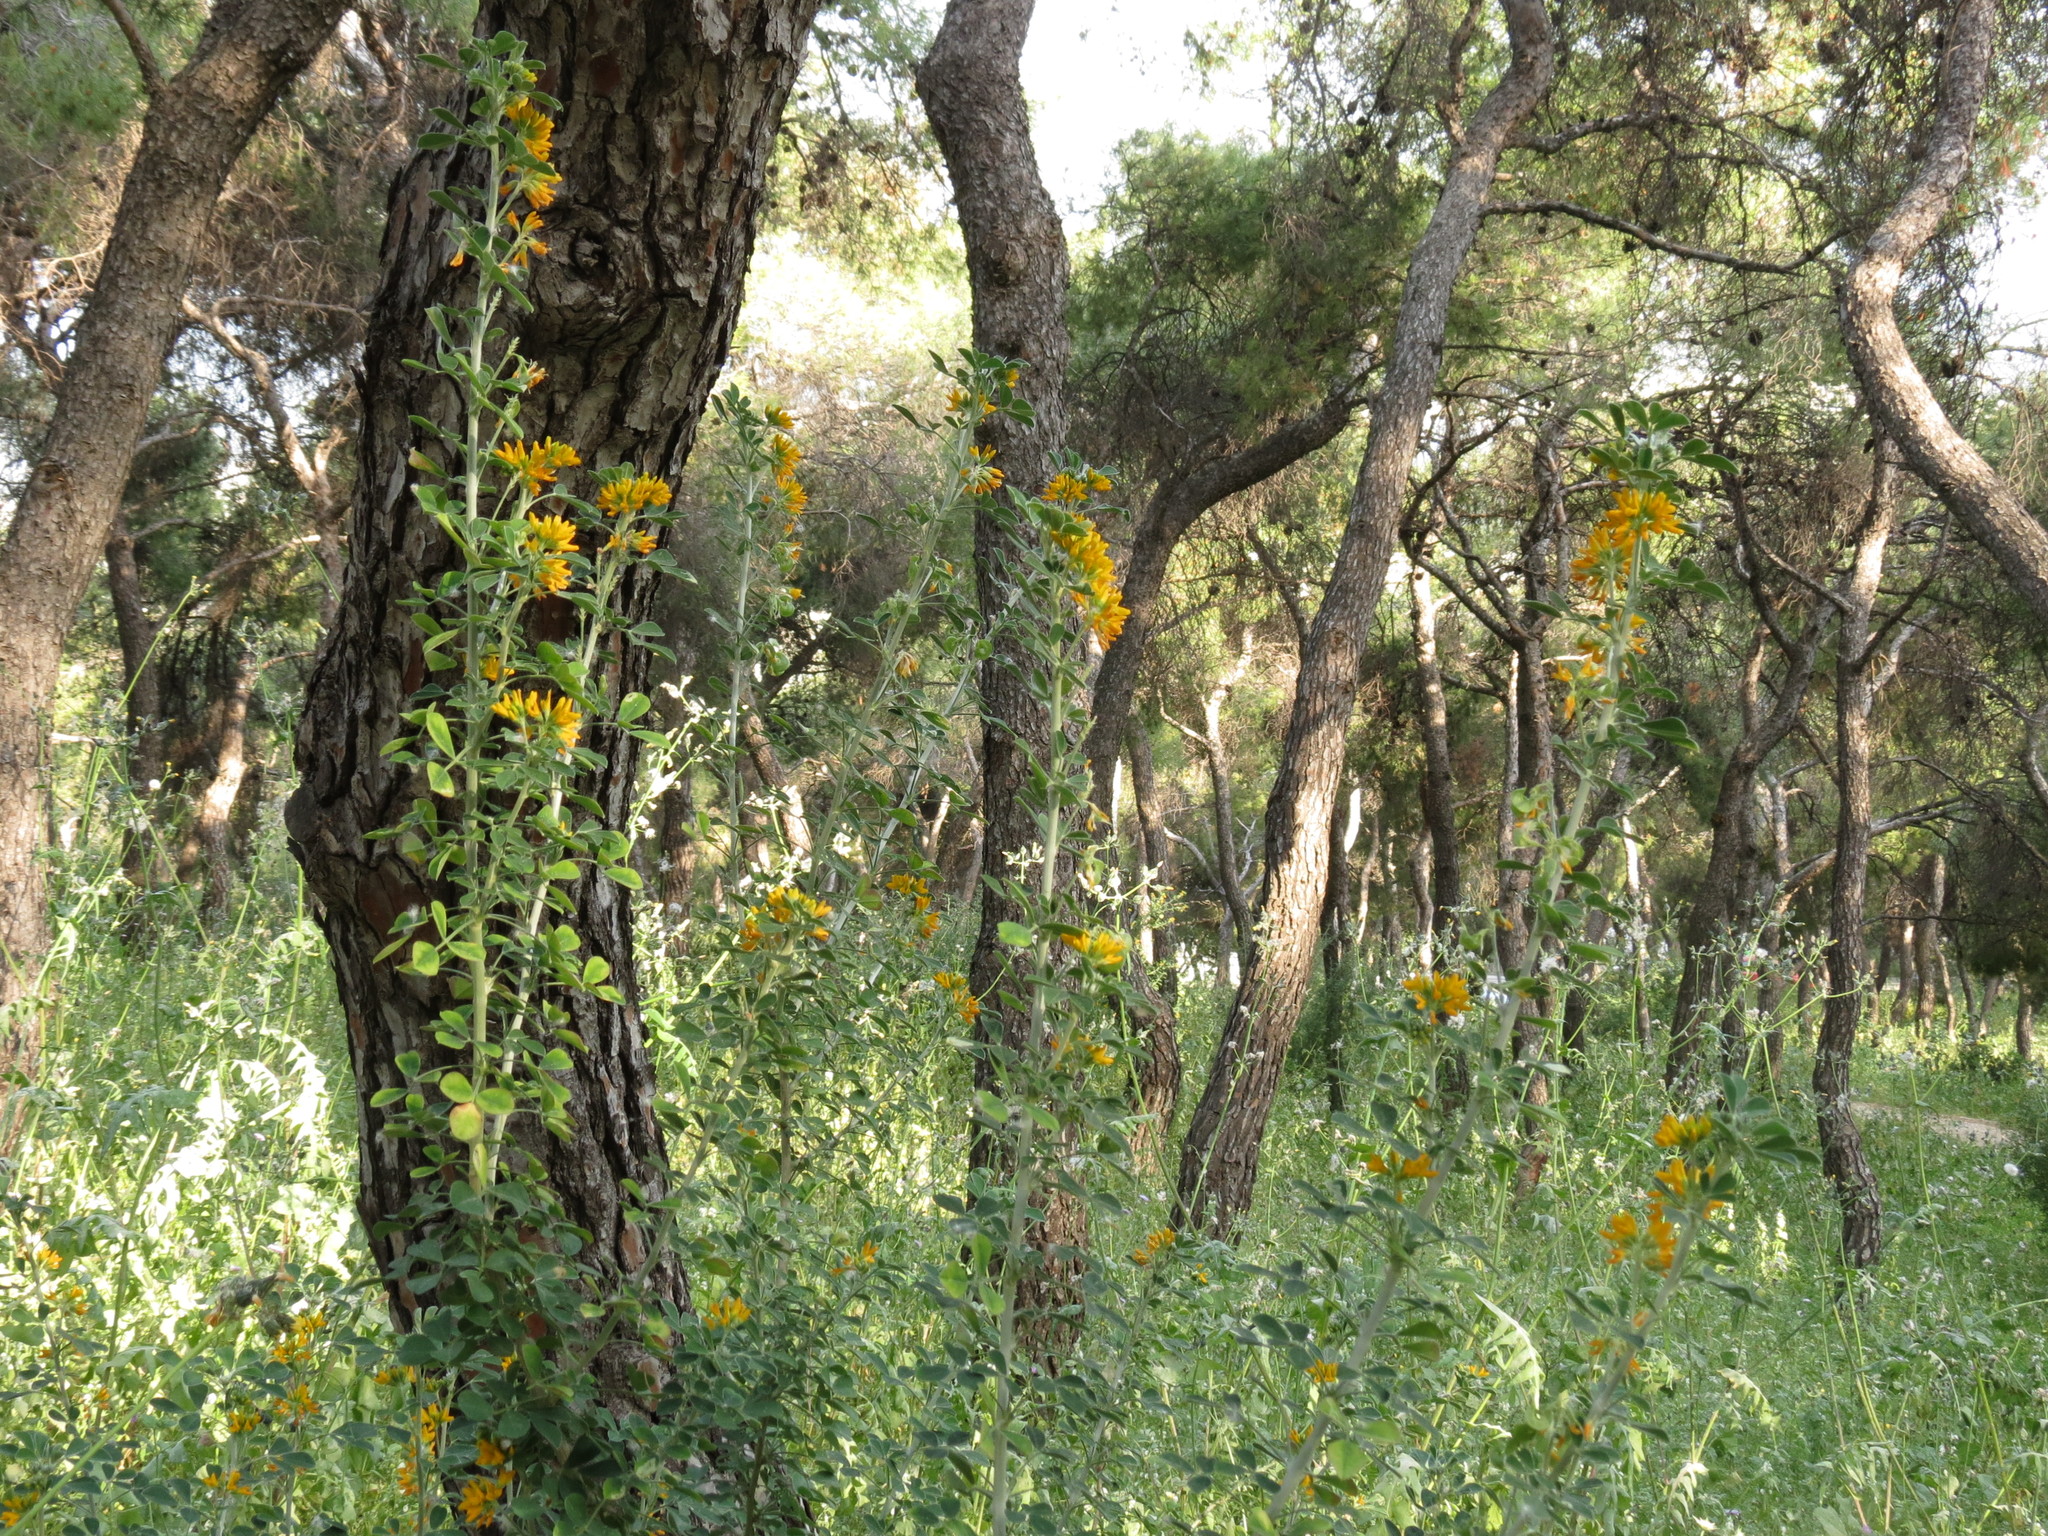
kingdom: Plantae
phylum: Tracheophyta
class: Magnoliopsida
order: Fabales
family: Fabaceae
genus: Medicago
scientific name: Medicago arborea
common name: Moon trefoil
